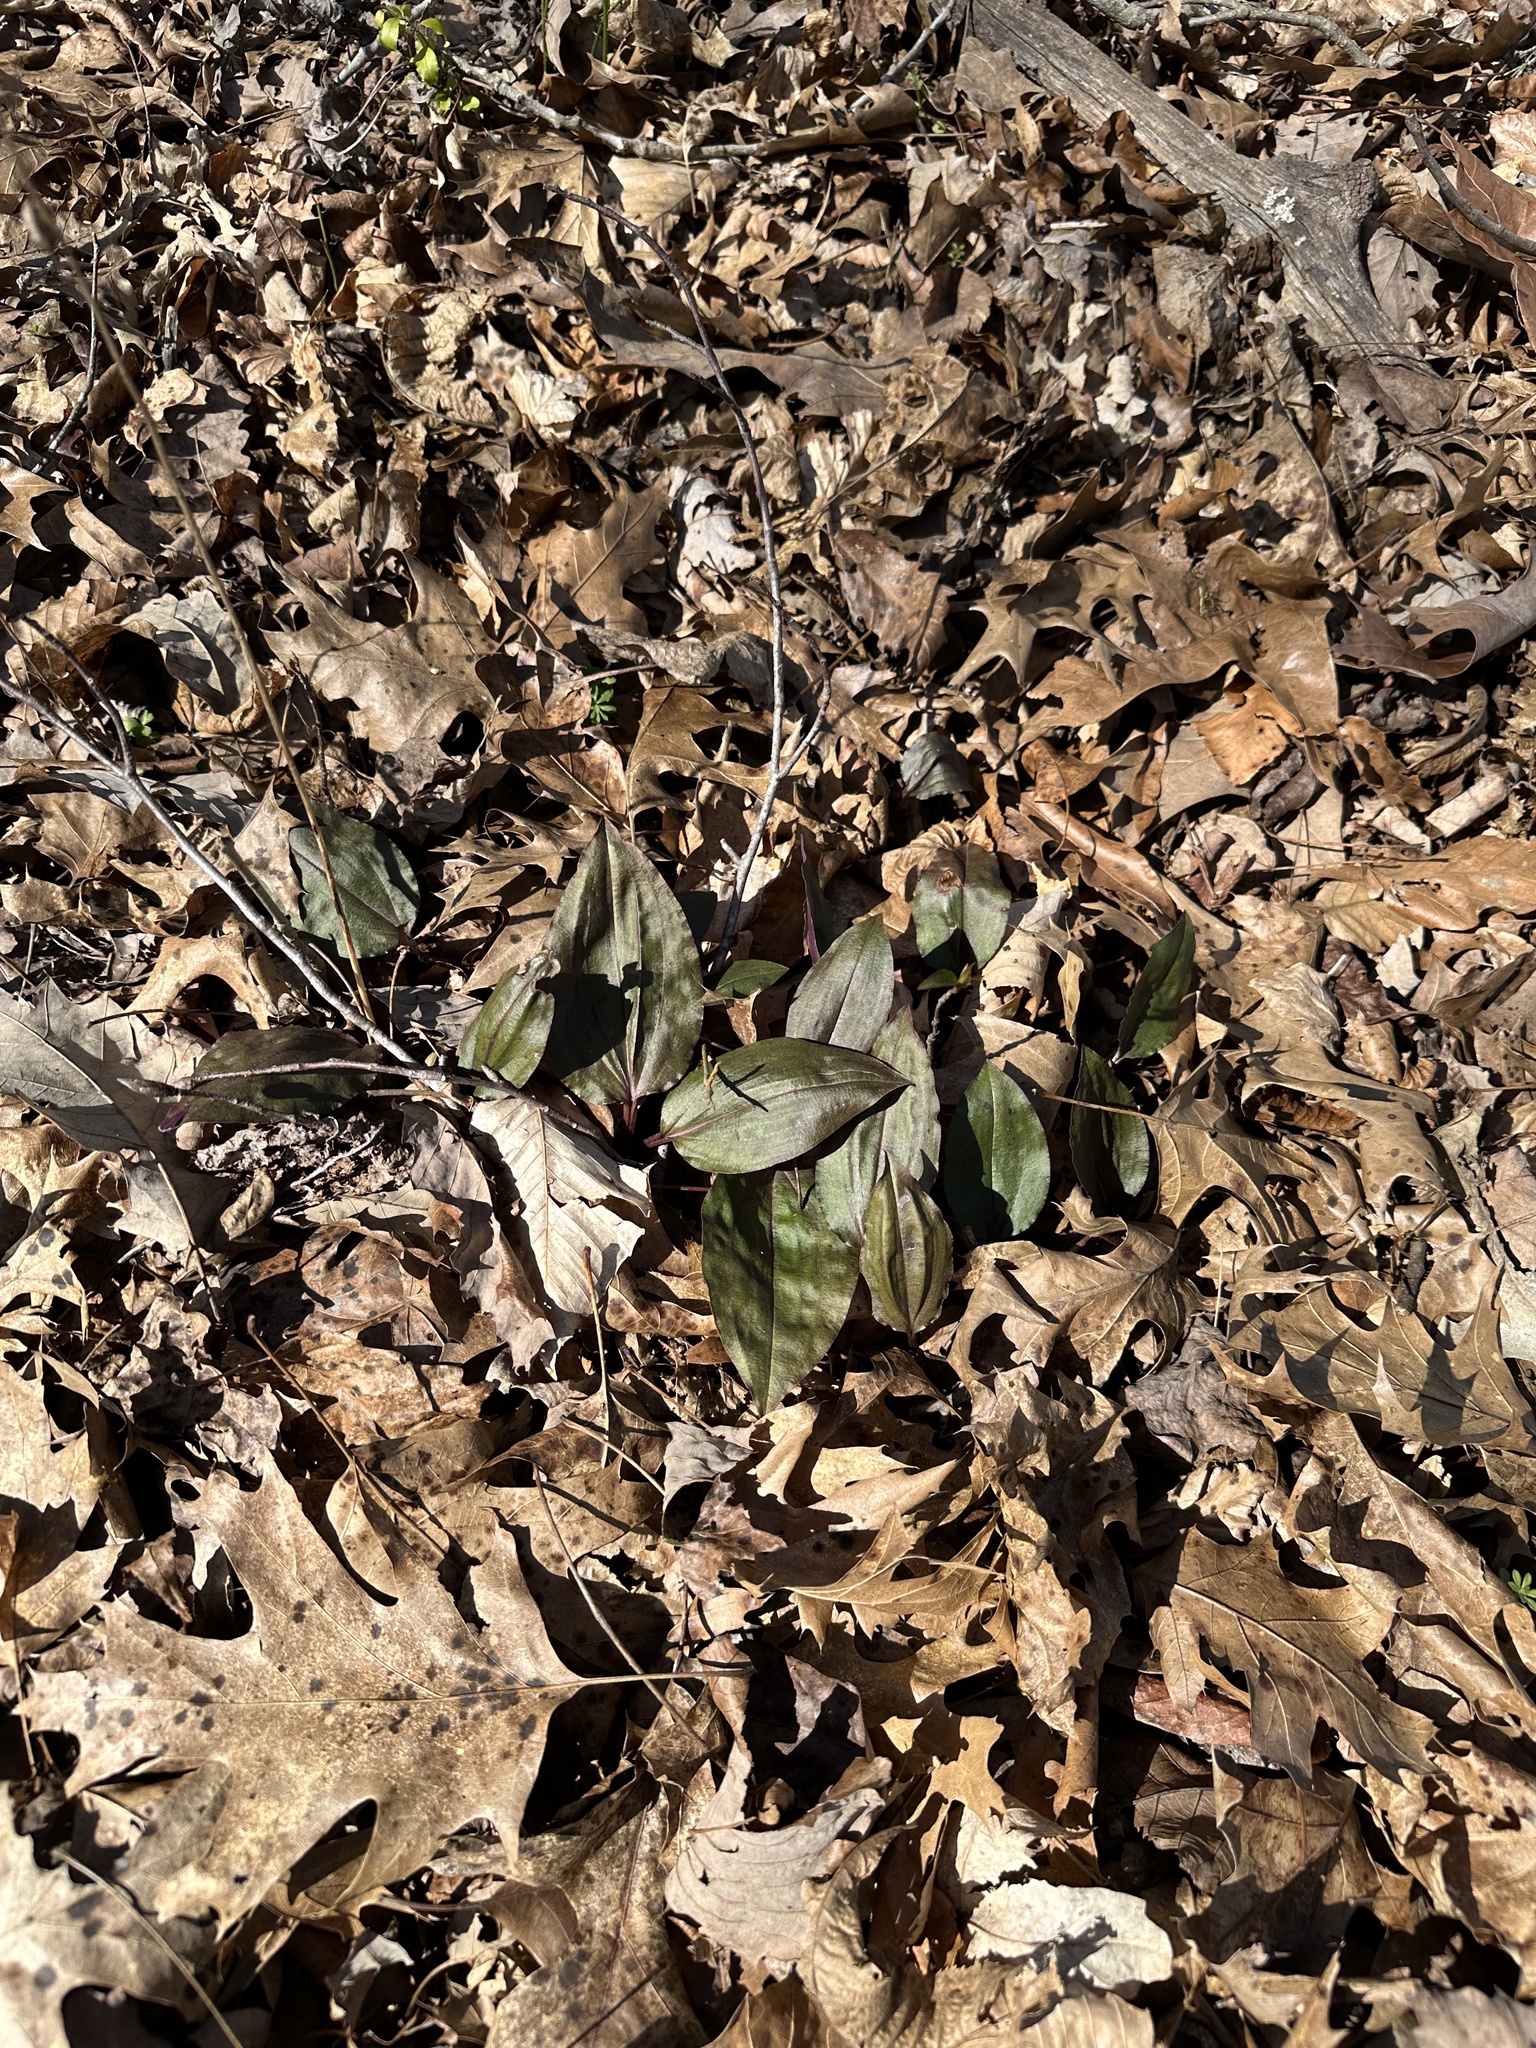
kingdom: Plantae
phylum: Tracheophyta
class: Liliopsida
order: Asparagales
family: Orchidaceae
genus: Tipularia
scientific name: Tipularia discolor
